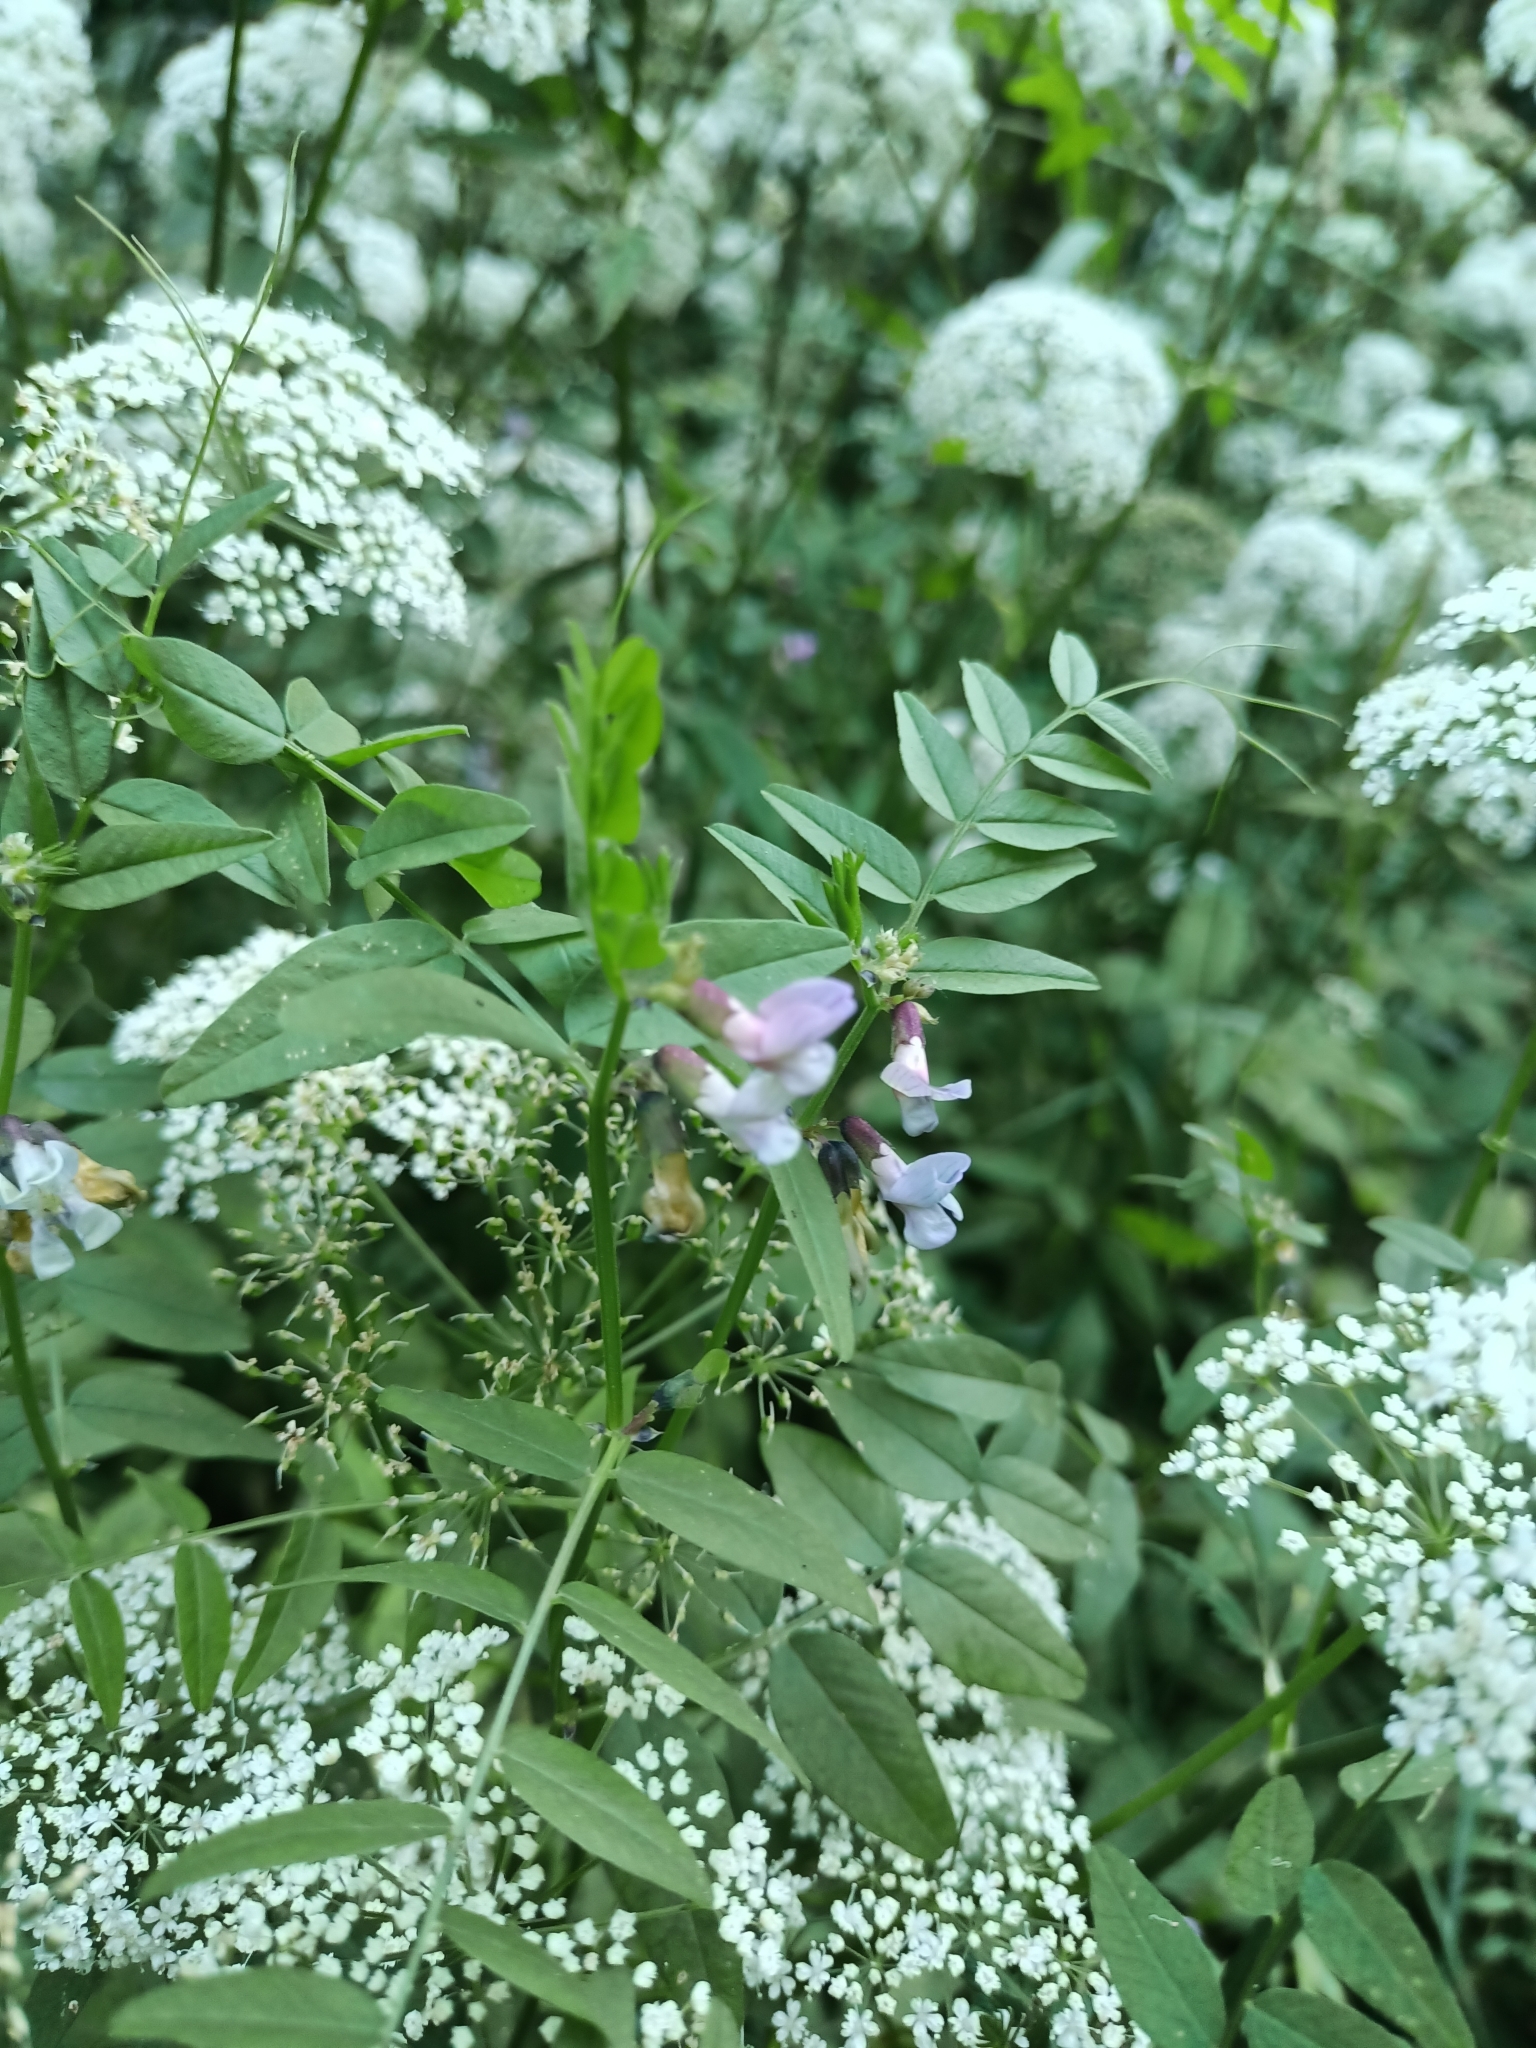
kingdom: Plantae
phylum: Tracheophyta
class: Magnoliopsida
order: Fabales
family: Fabaceae
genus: Vicia
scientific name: Vicia sepium
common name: Bush vetch
